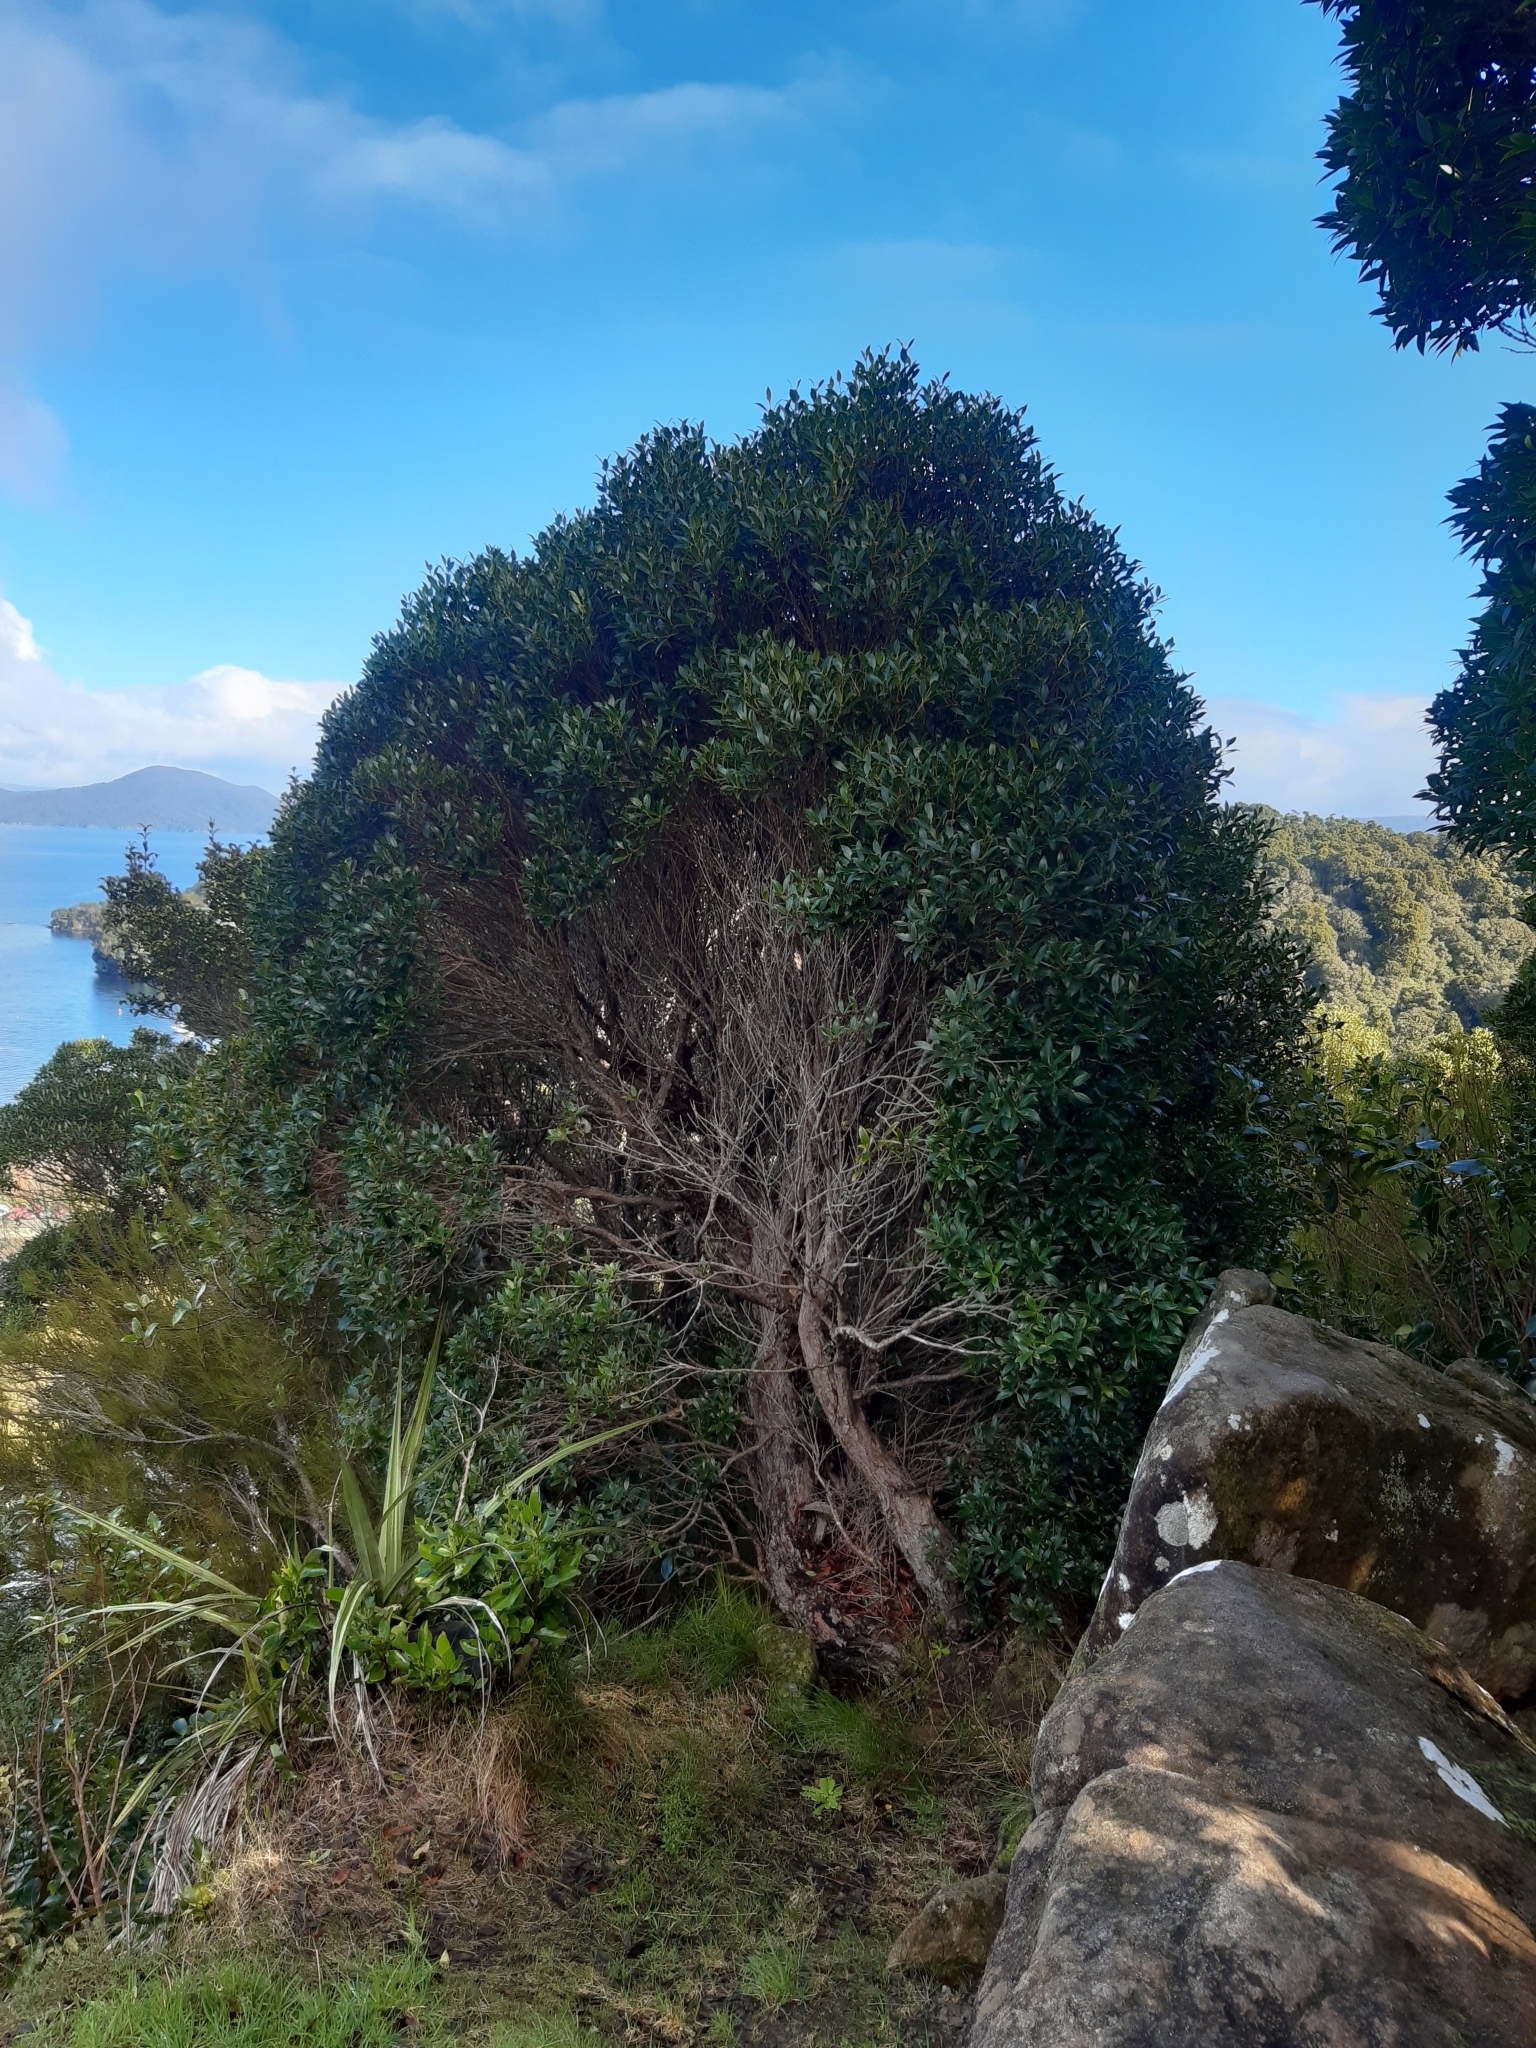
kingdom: Plantae
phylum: Tracheophyta
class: Magnoliopsida
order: Myrtales
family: Myrtaceae
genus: Metrosideros
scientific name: Metrosideros umbellata
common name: Southern rata
